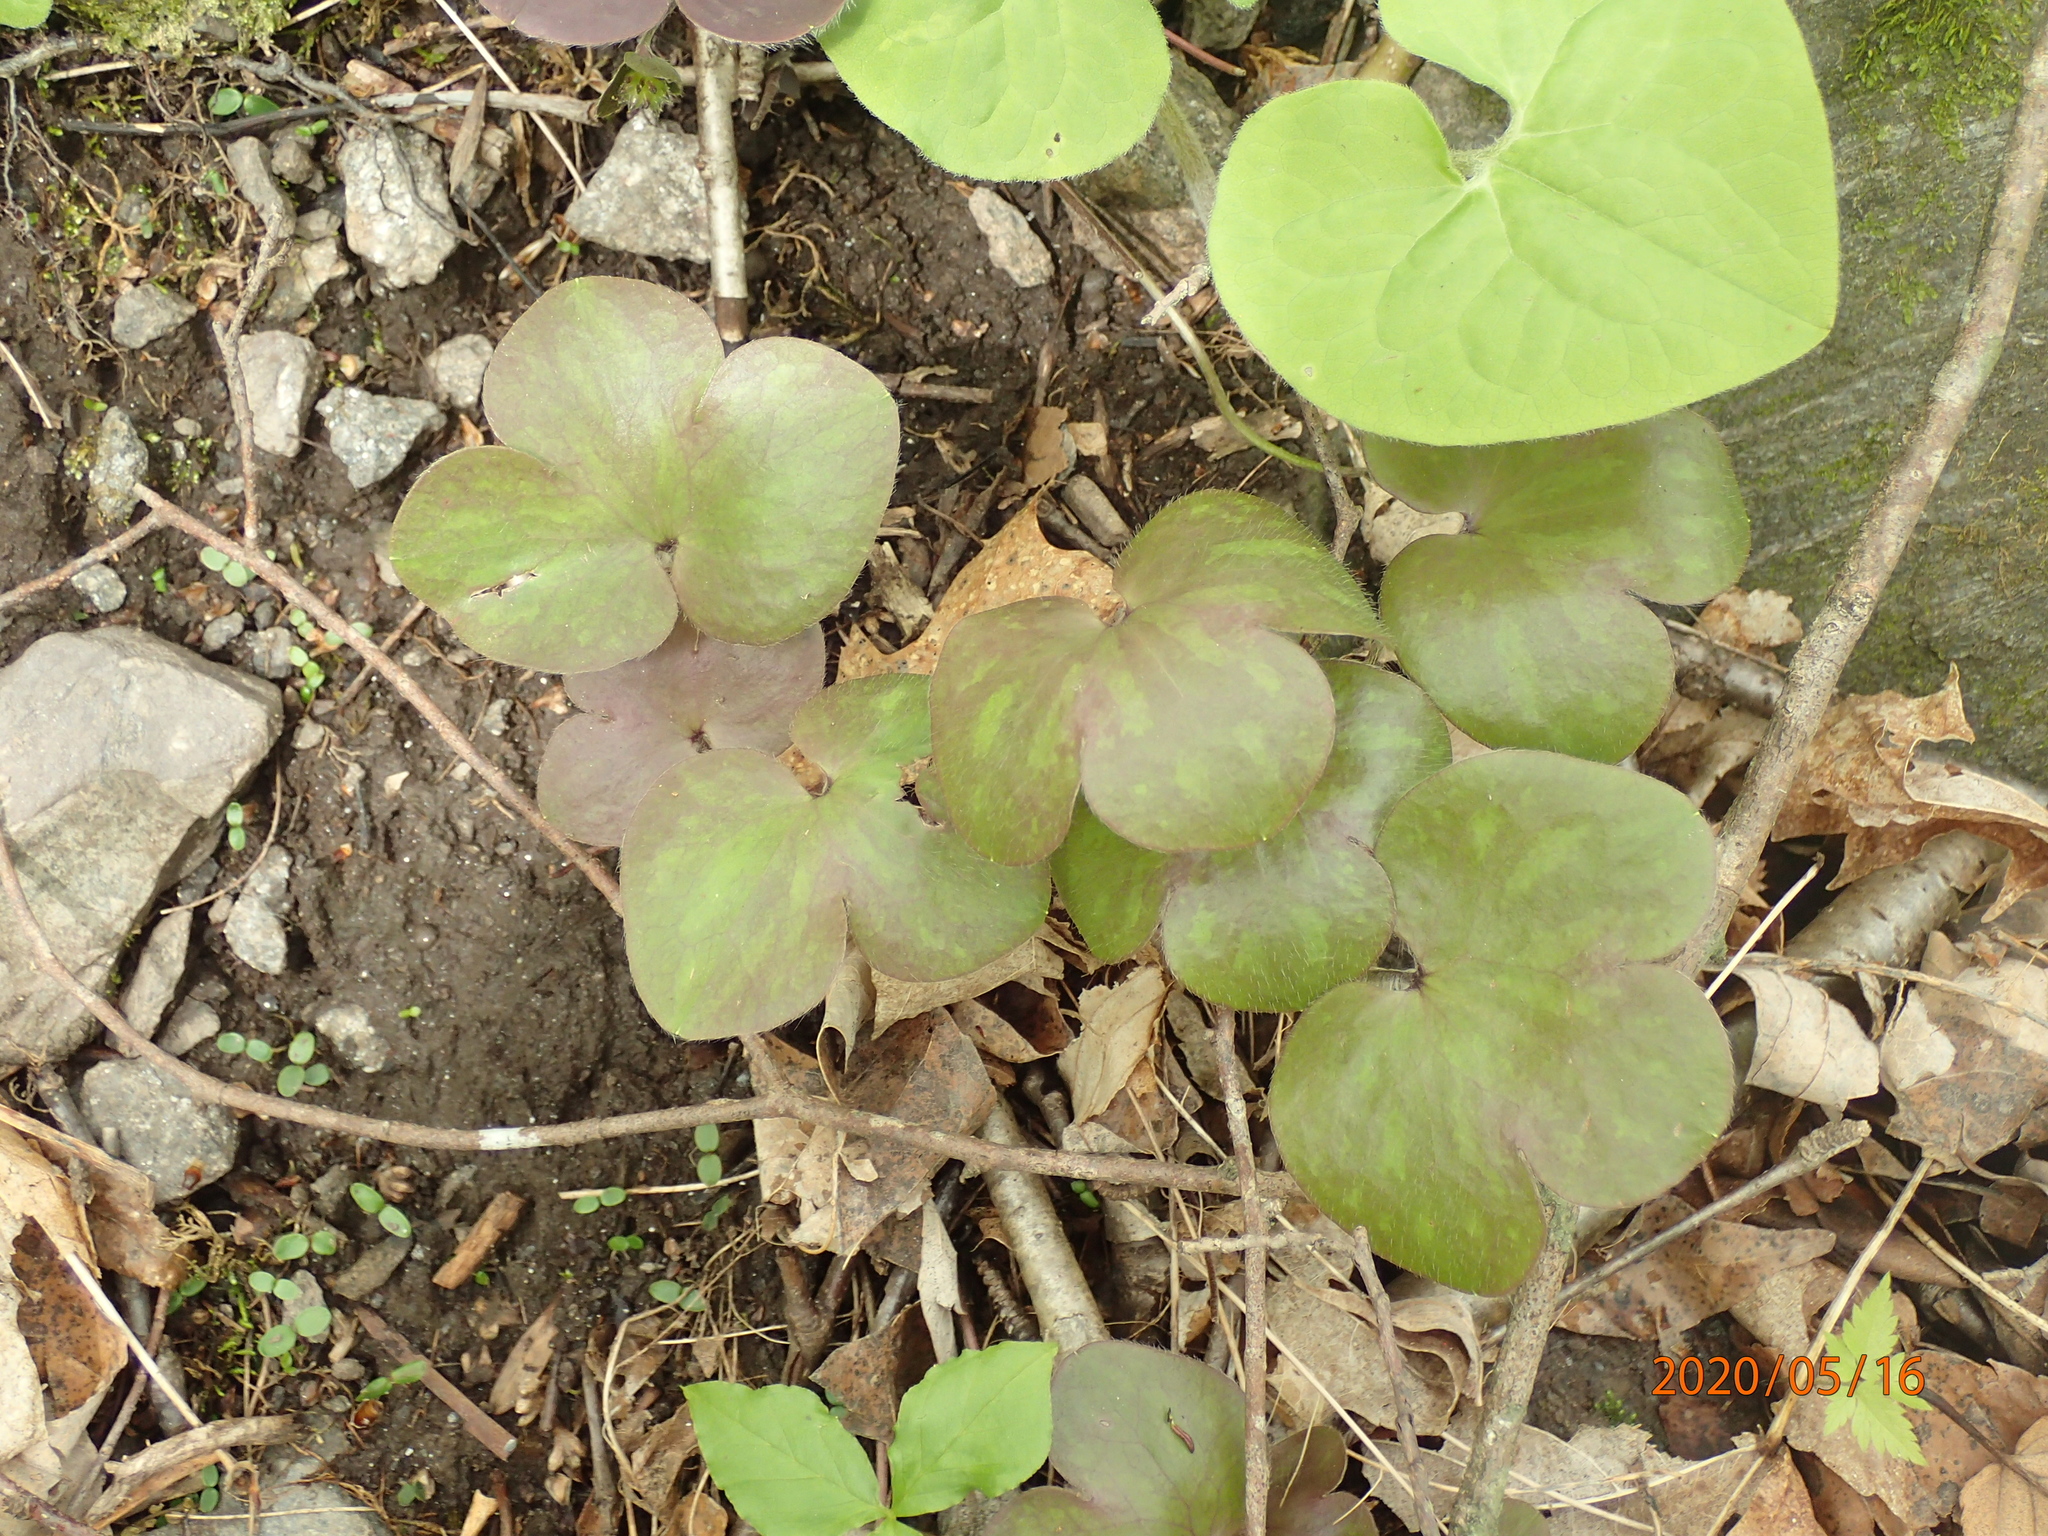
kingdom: Plantae
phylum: Tracheophyta
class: Magnoliopsida
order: Ranunculales
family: Ranunculaceae
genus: Hepatica
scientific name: Hepatica americana
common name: American hepatica
